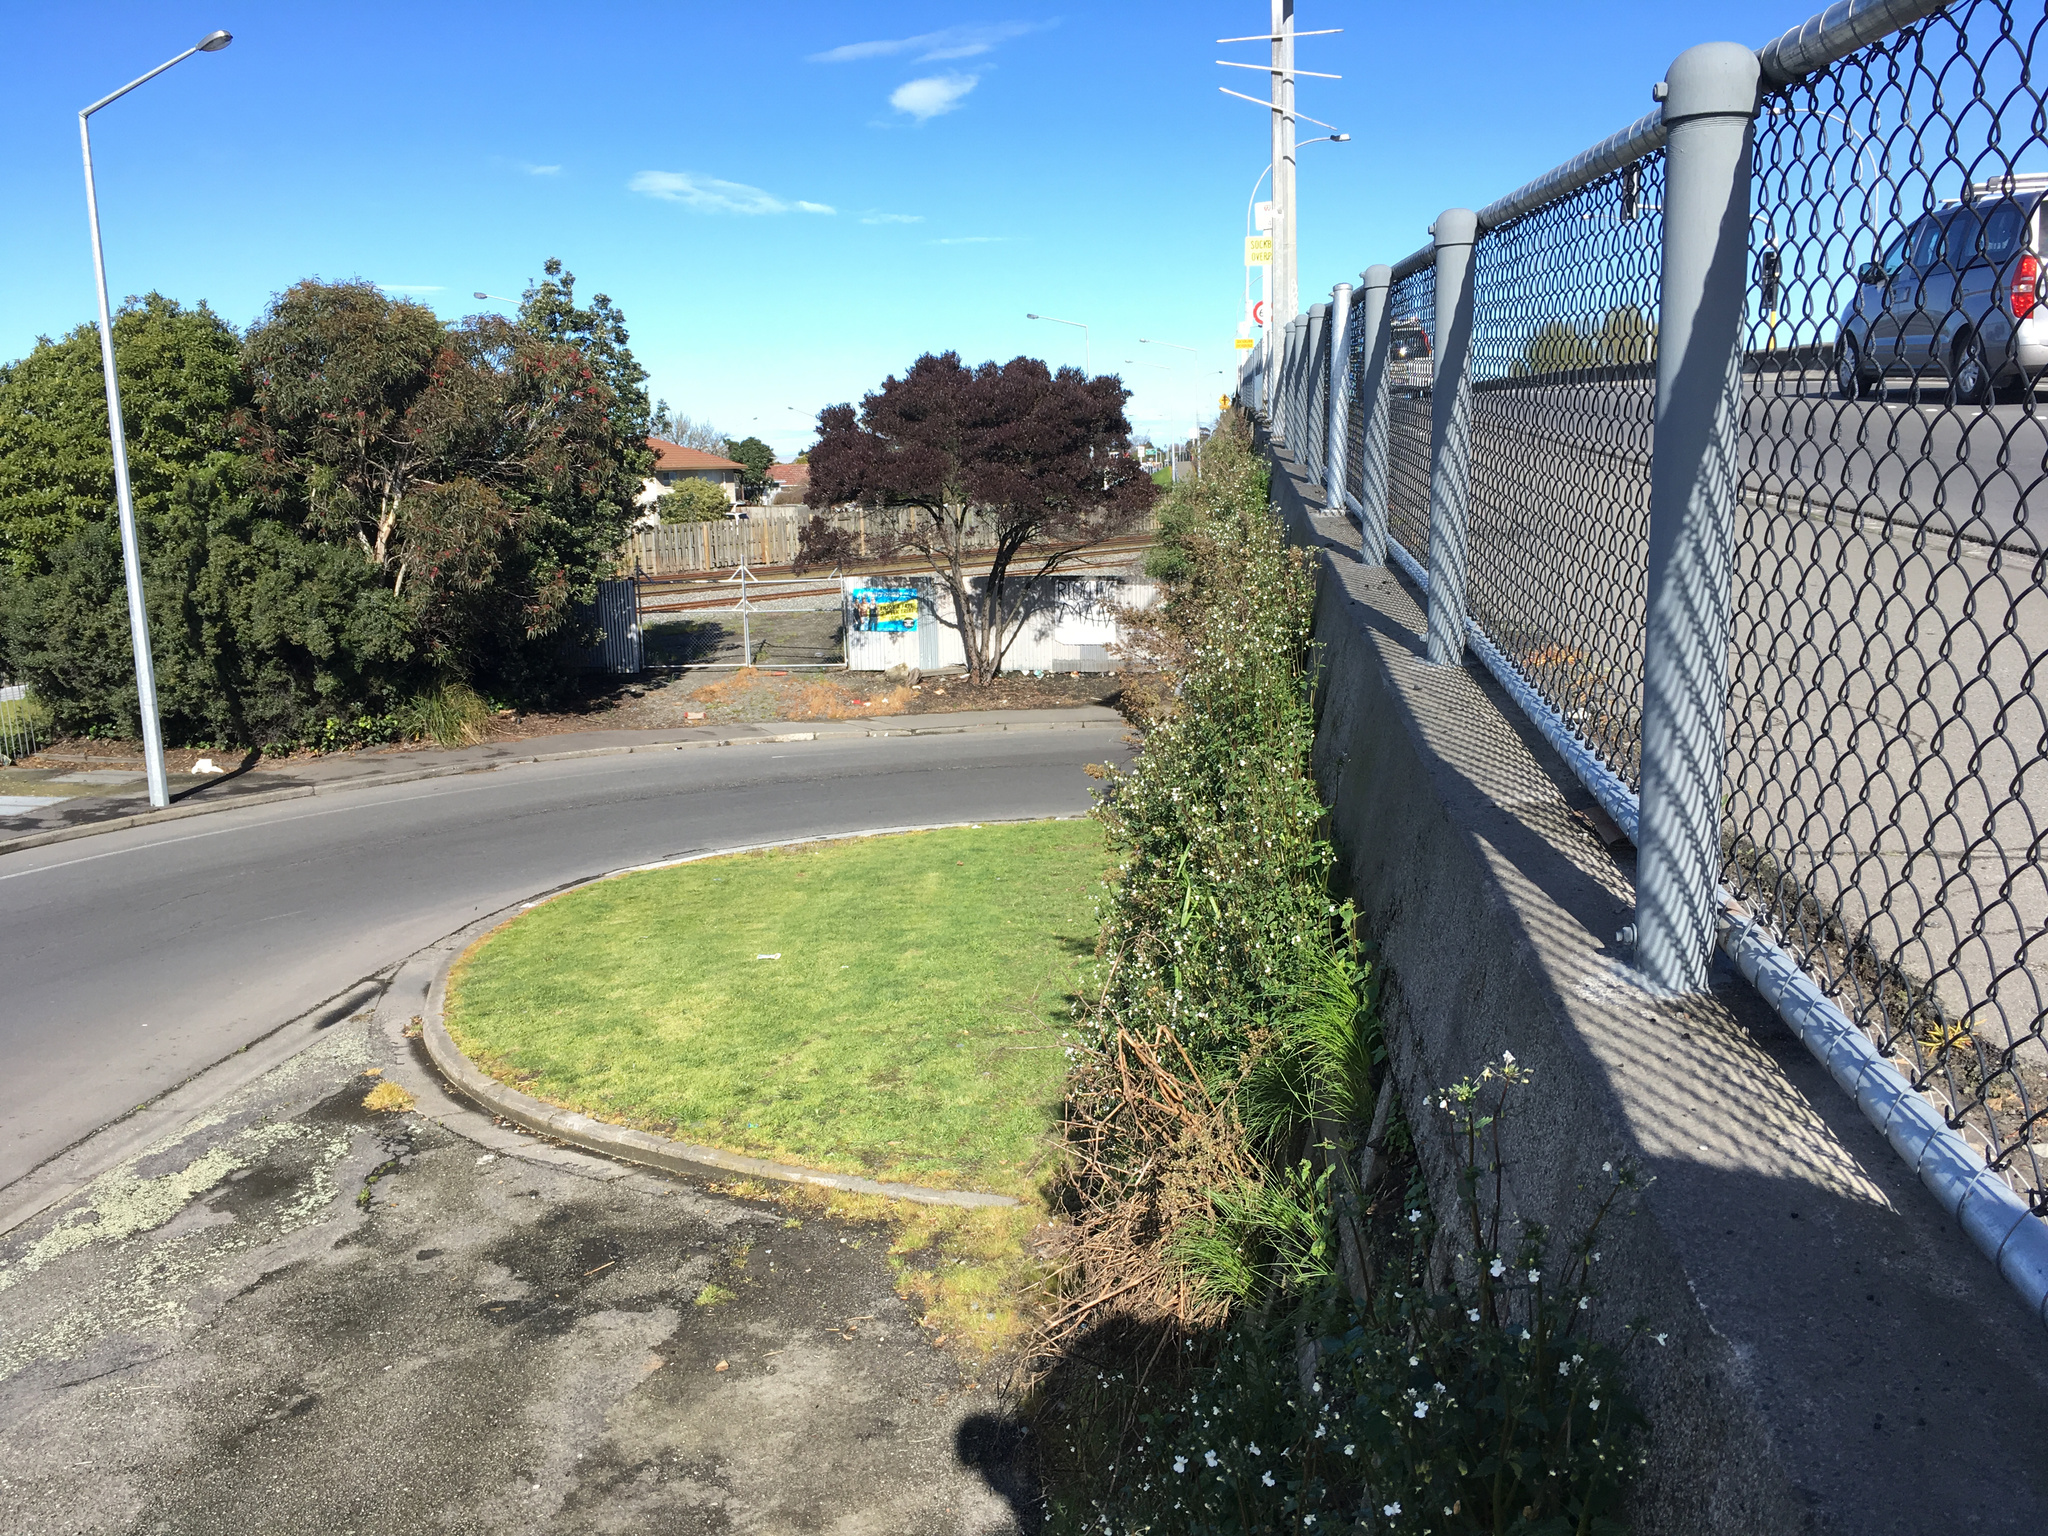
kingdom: Plantae
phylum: Tracheophyta
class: Magnoliopsida
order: Lamiales
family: Scrophulariaceae
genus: Nemesia
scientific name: Nemesia floribunda
